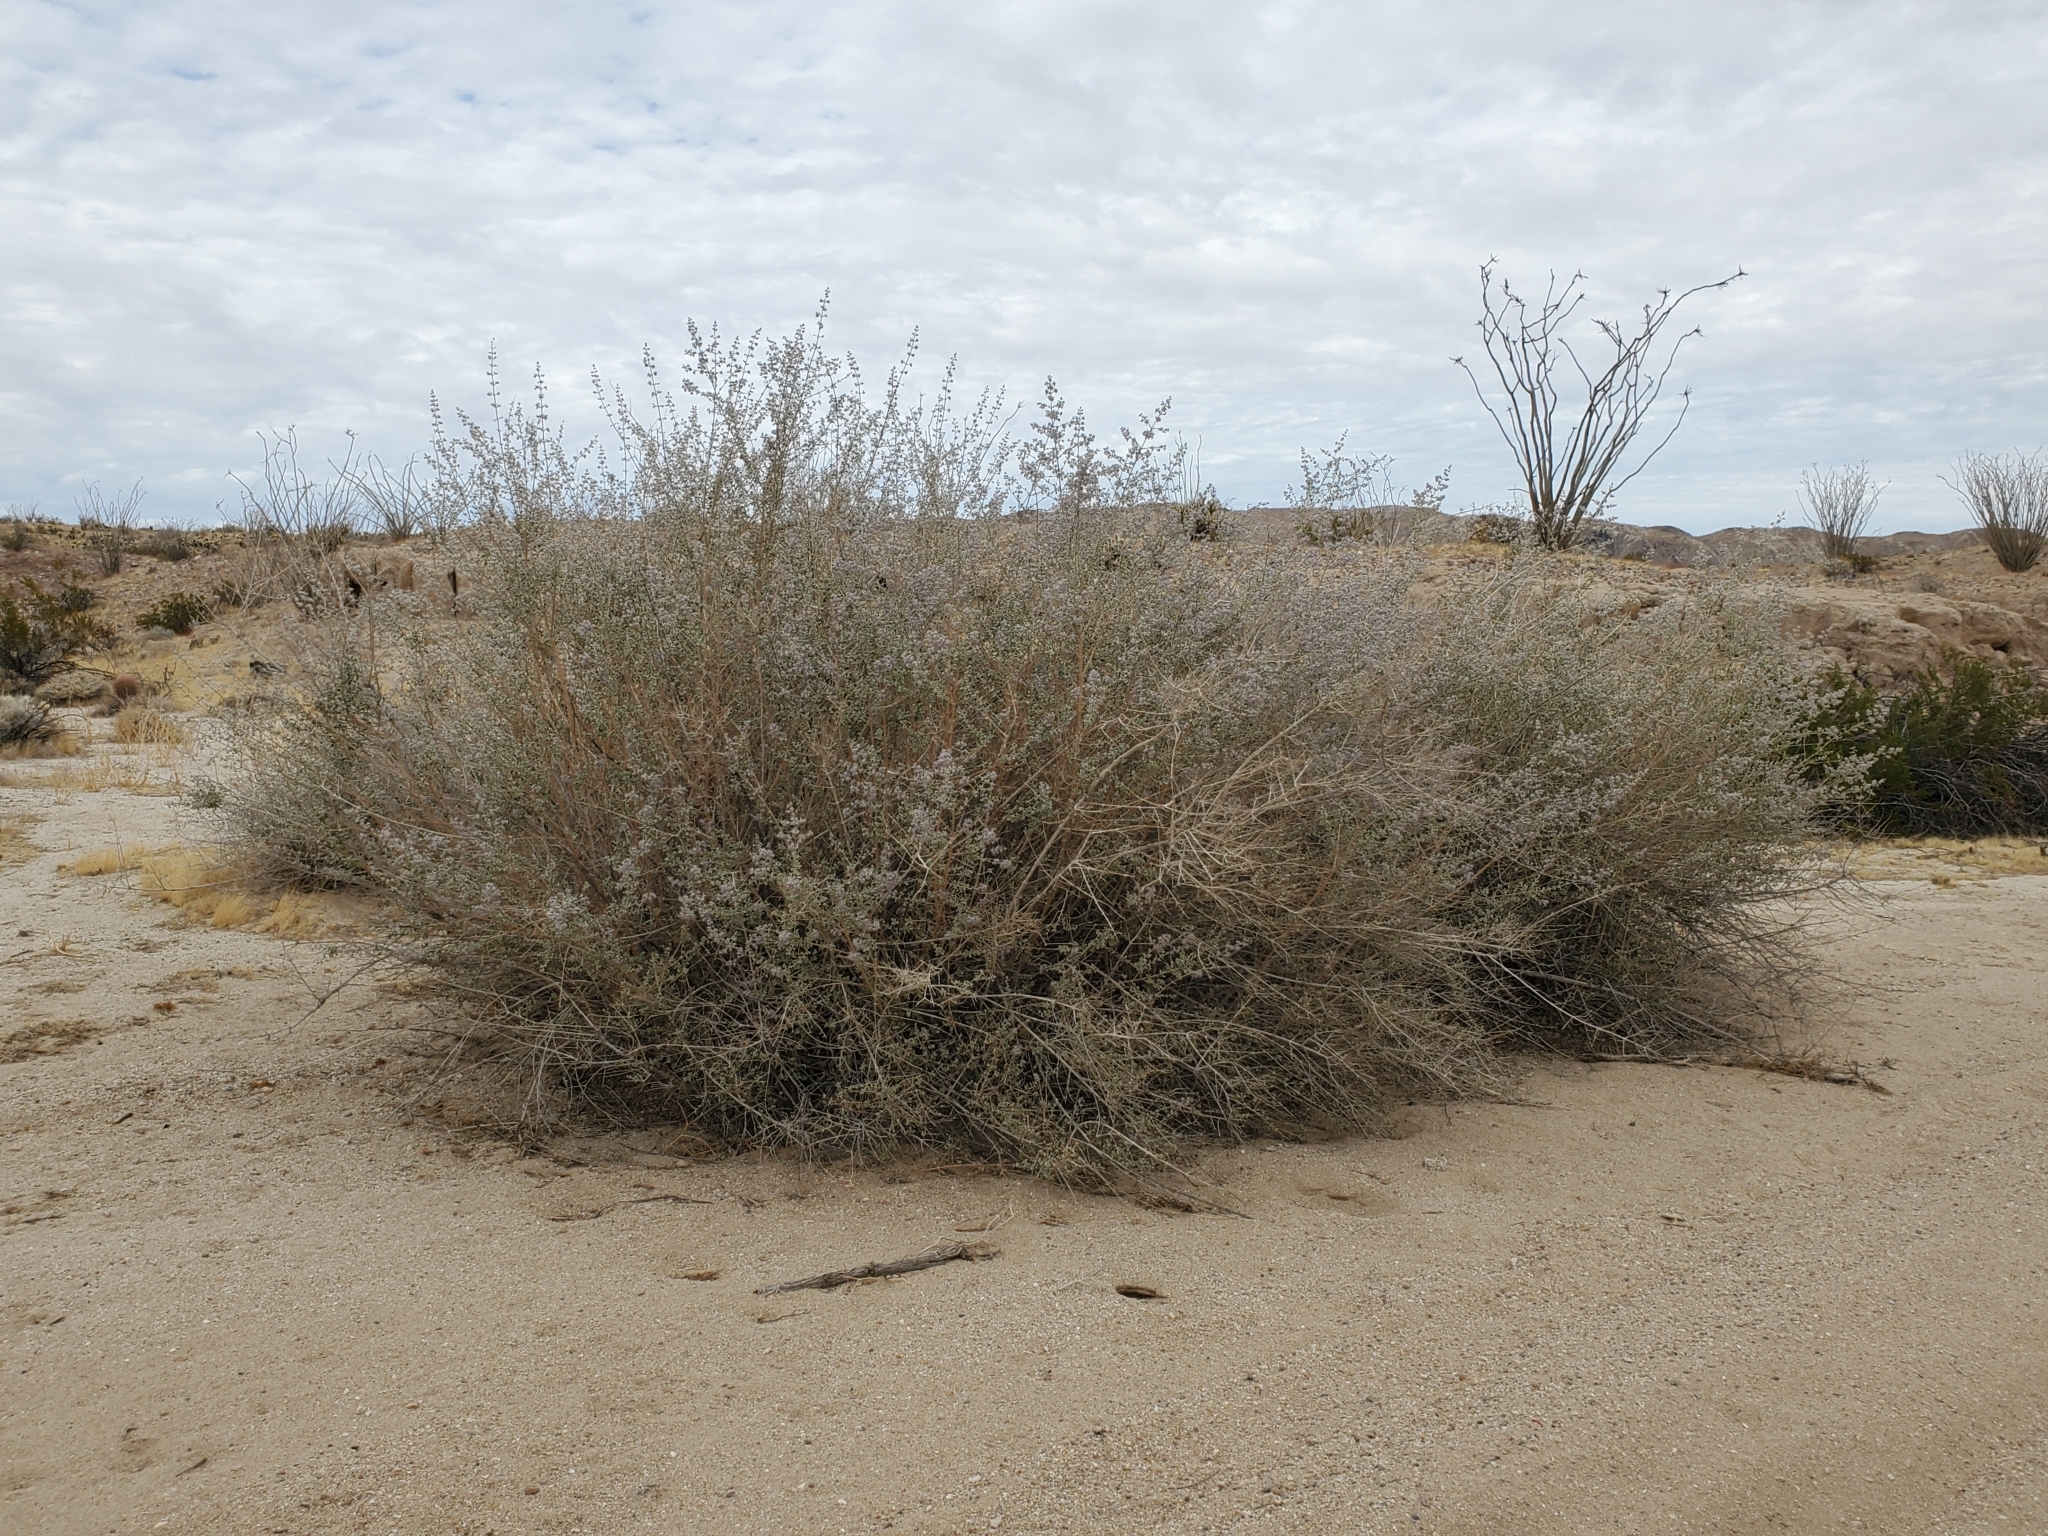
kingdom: Plantae
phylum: Tracheophyta
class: Magnoliopsida
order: Lamiales
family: Lamiaceae
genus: Condea
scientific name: Condea emoryi
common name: Chia
